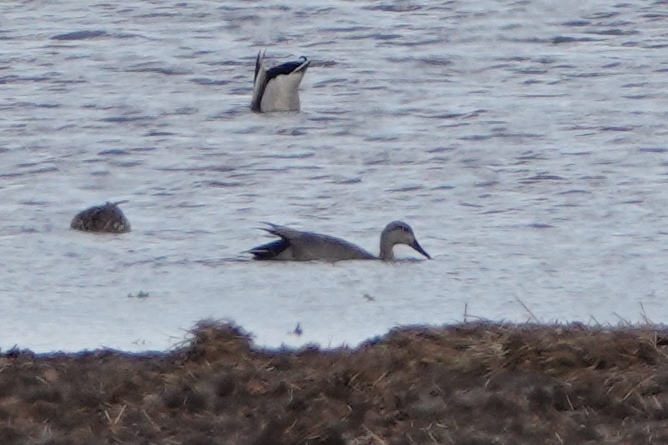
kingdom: Animalia
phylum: Chordata
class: Aves
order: Anseriformes
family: Anatidae
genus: Mareca
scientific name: Mareca strepera
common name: Gadwall
